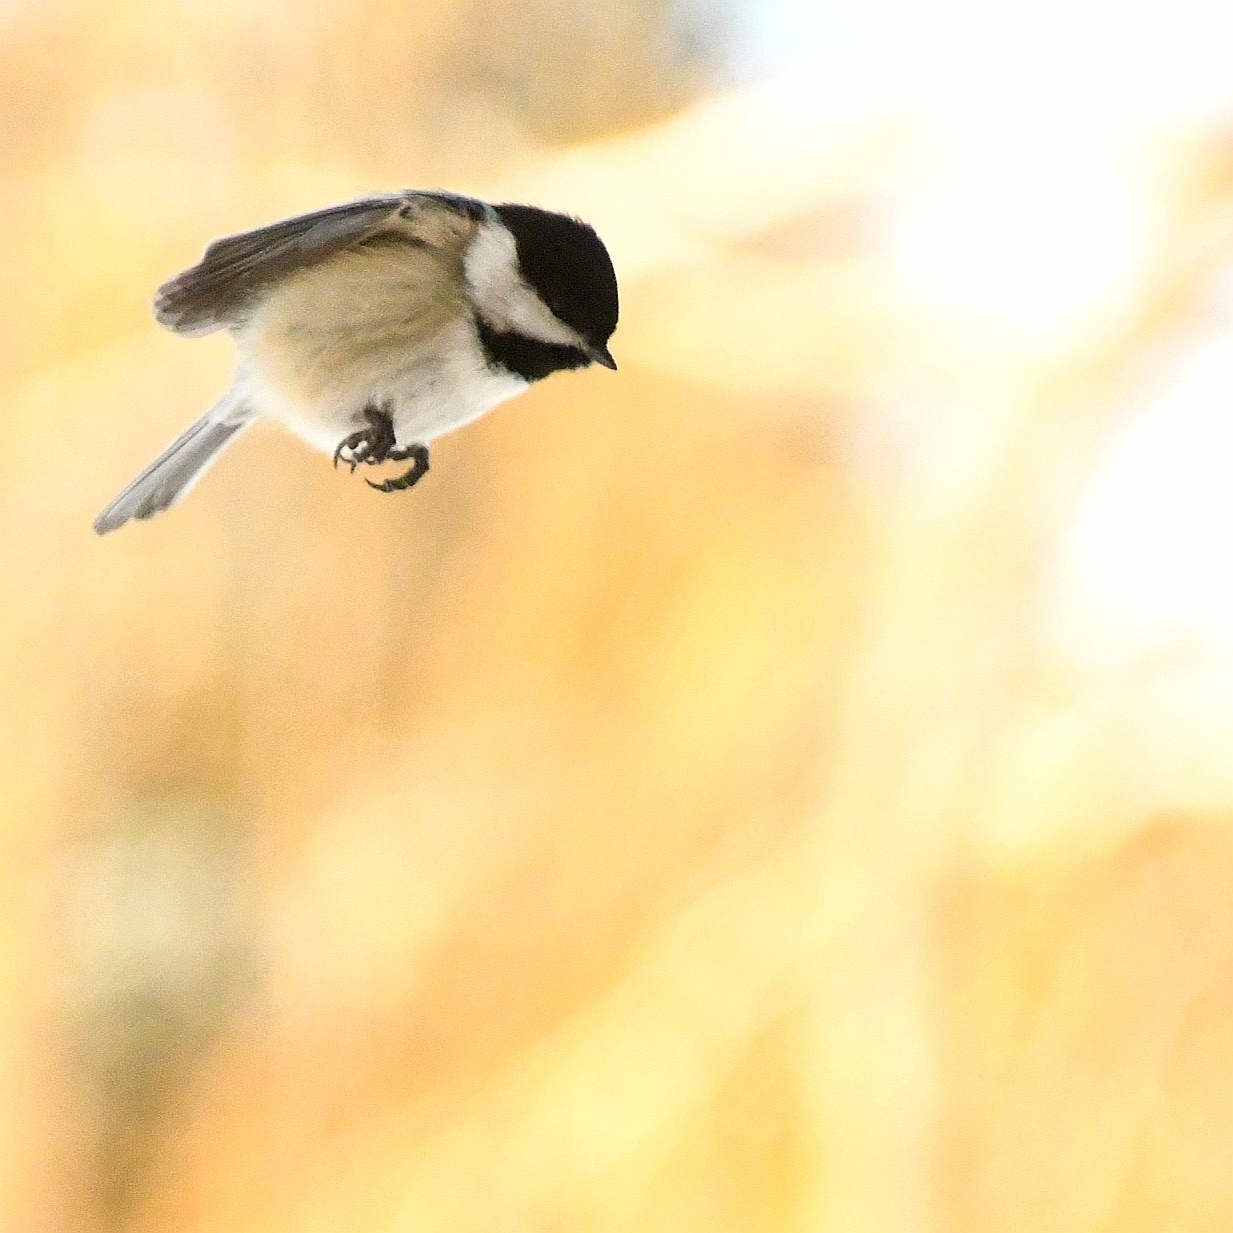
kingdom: Animalia
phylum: Chordata
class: Aves
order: Passeriformes
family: Paridae
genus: Poecile
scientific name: Poecile atricapillus
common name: Black-capped chickadee
